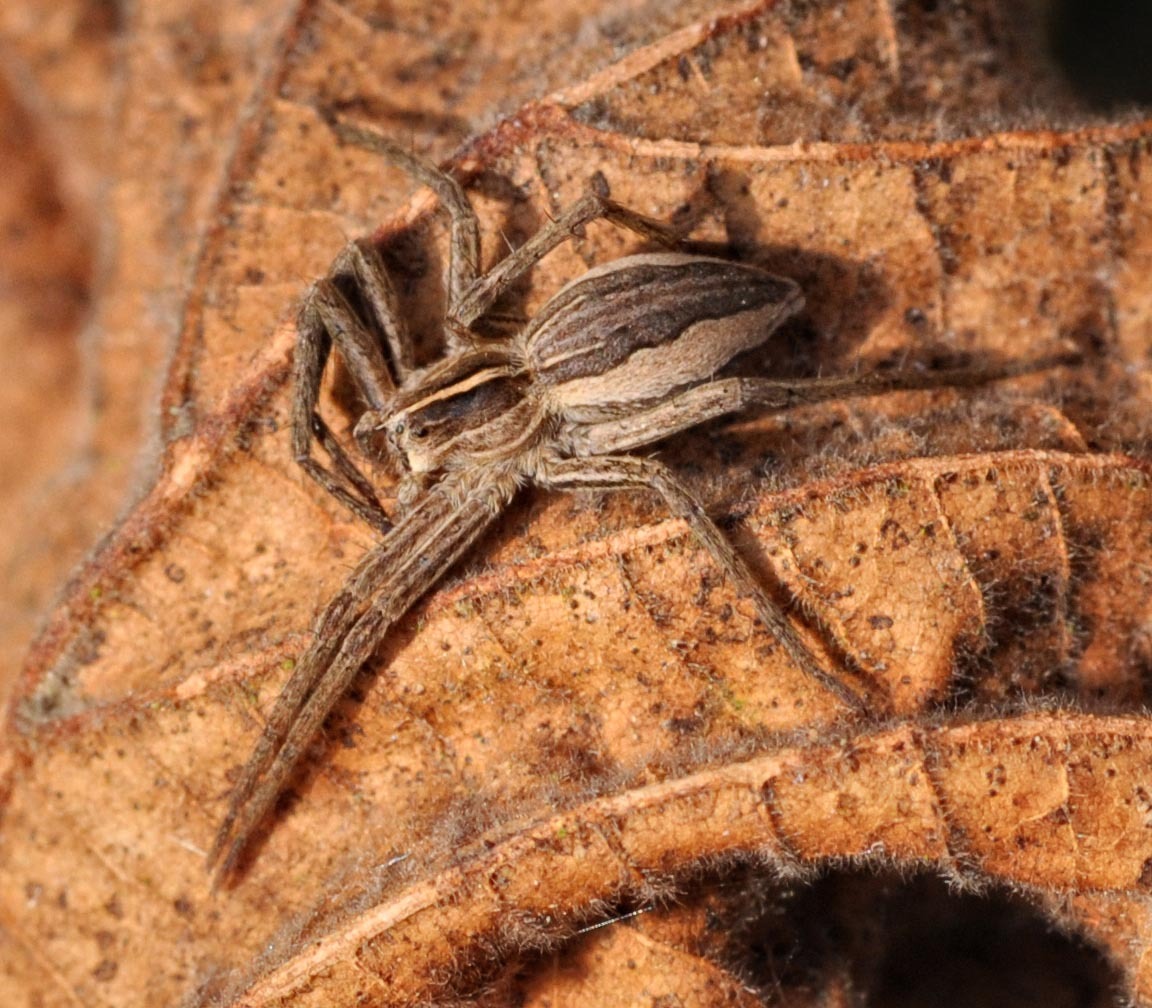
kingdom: Animalia
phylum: Arthropoda
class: Arachnida
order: Araneae
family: Pisauridae
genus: Pisaura
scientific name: Pisaura mirabilis
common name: Tent spider
